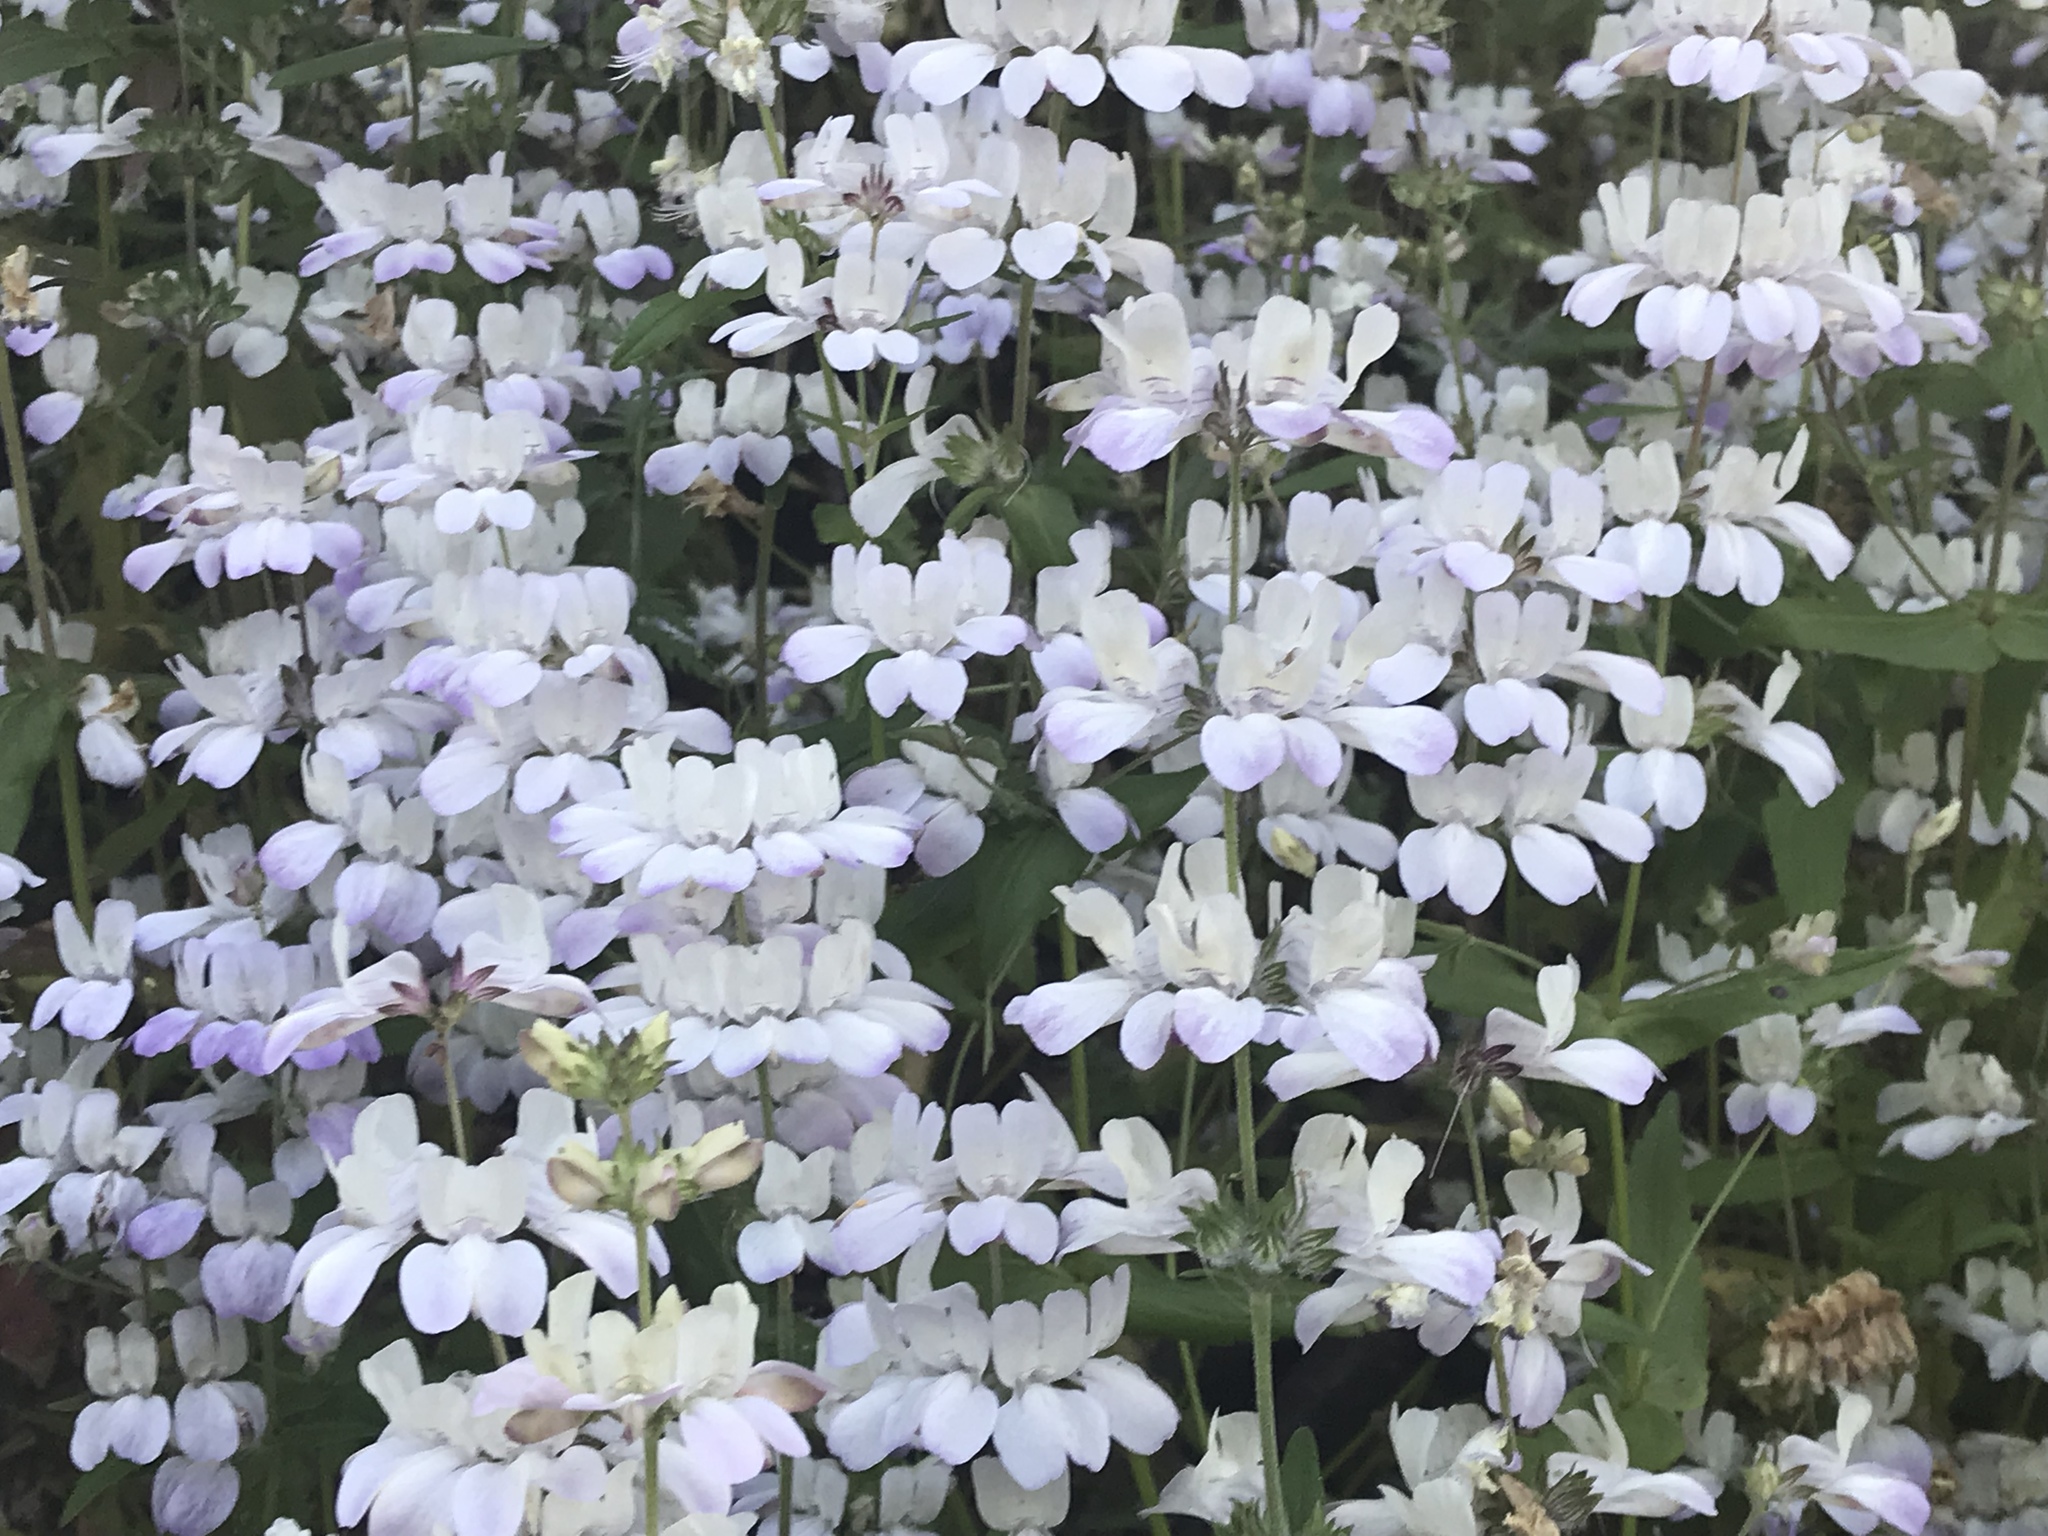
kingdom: Plantae
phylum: Tracheophyta
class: Magnoliopsida
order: Lamiales
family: Plantaginaceae
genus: Collinsia
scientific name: Collinsia heterophylla
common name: Chinese-houses
